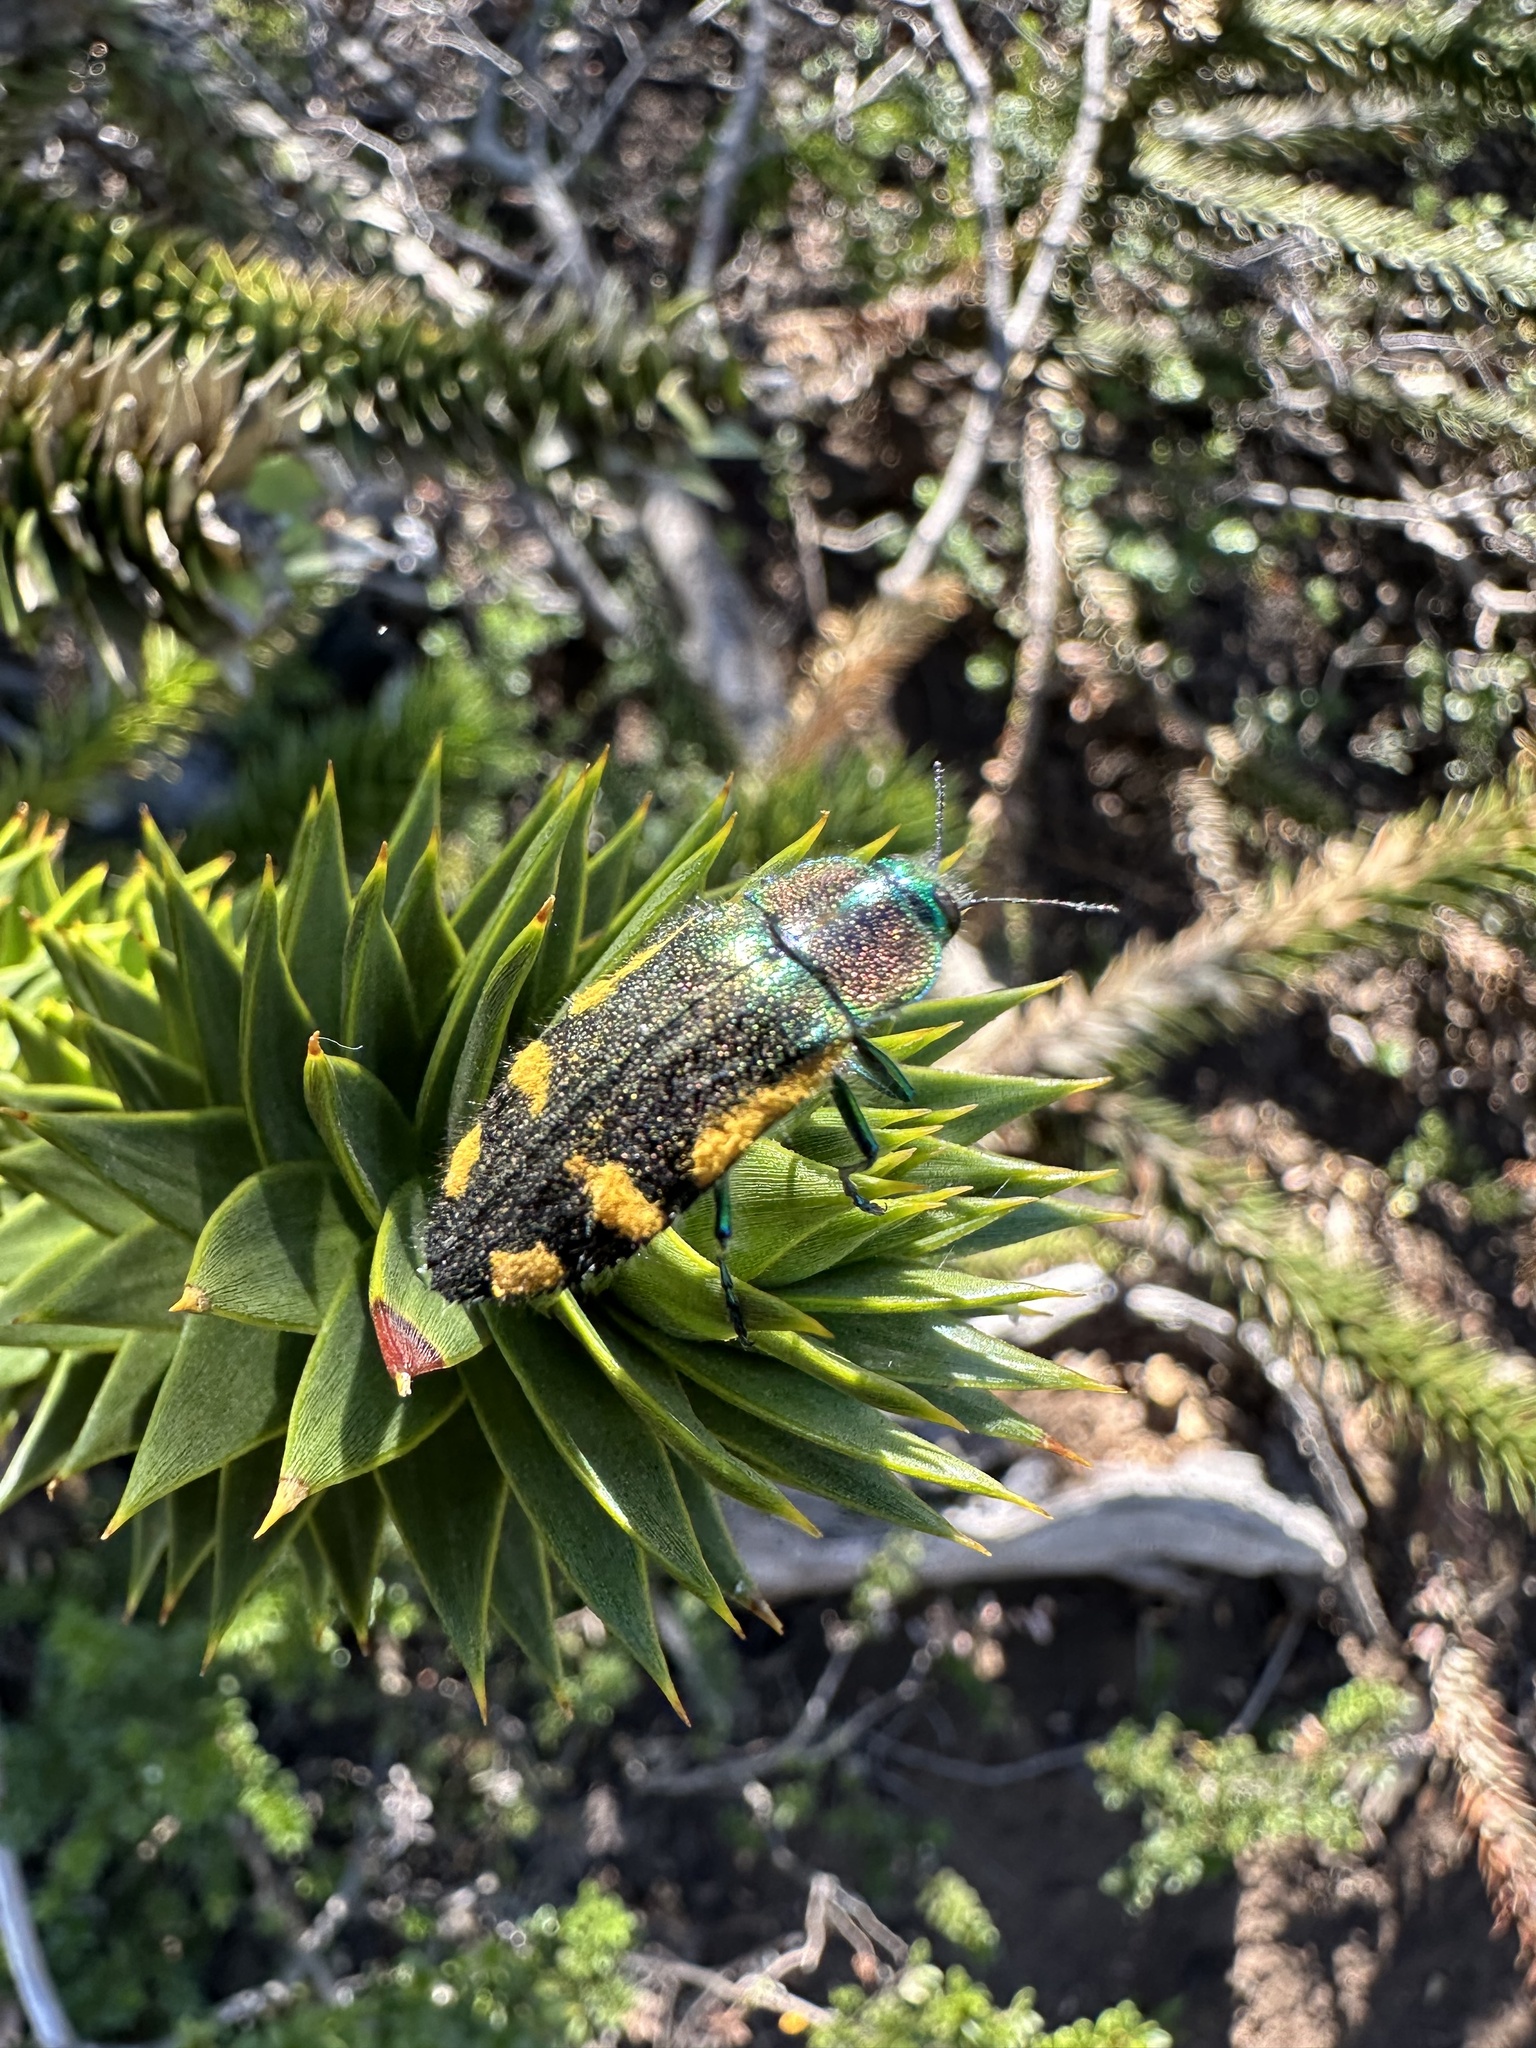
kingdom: Animalia
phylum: Arthropoda
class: Insecta
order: Coleoptera
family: Buprestidae
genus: Hypoprasis
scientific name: Hypoprasis elegans
